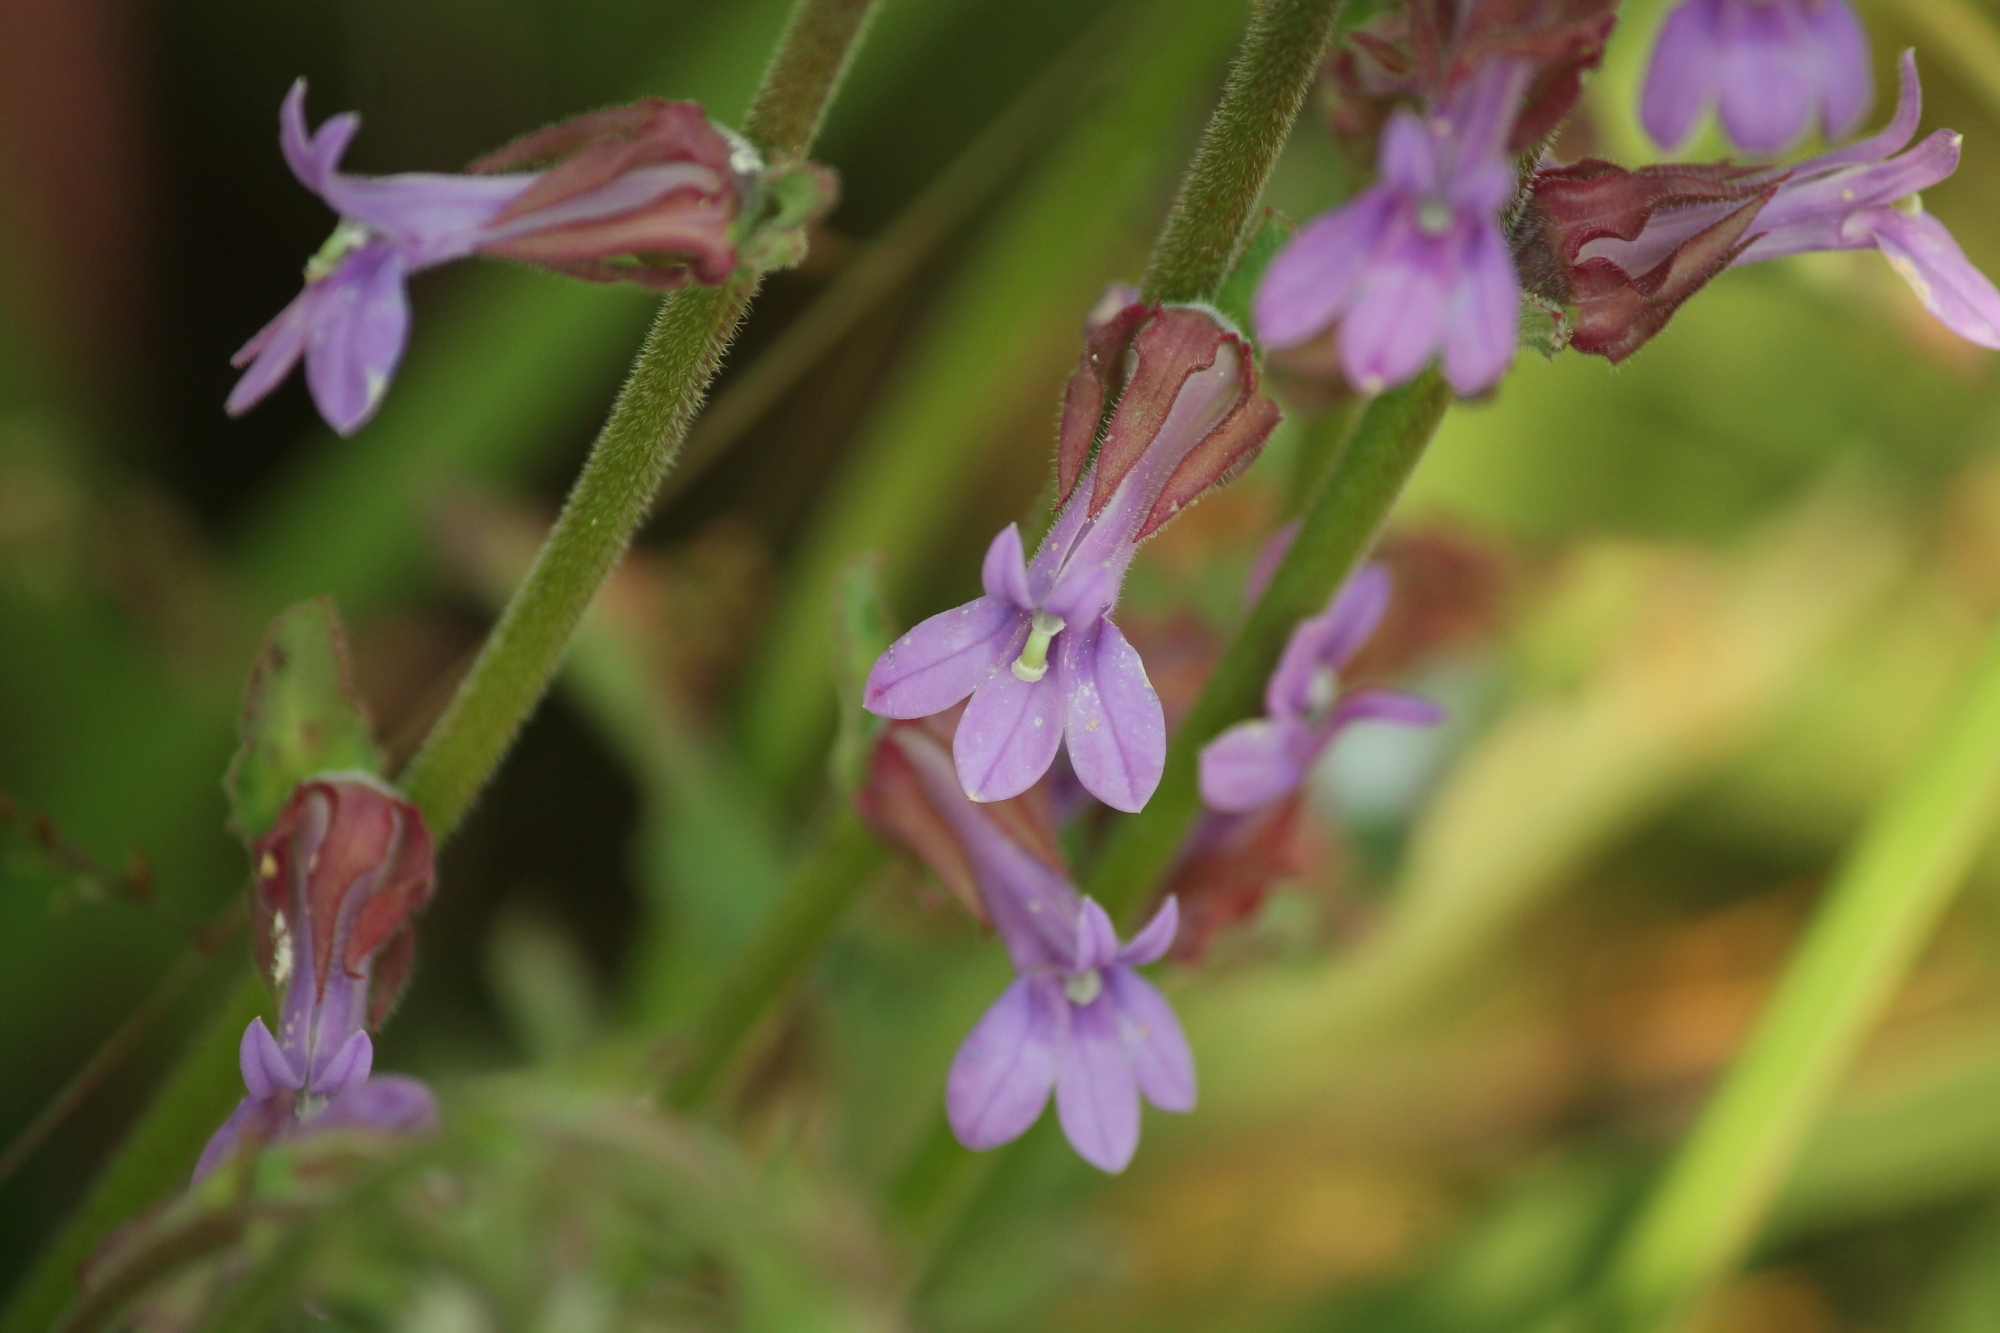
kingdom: Plantae
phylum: Tracheophyta
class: Magnoliopsida
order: Asterales
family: Campanulaceae
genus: Lobelia
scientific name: Lobelia puberula
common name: Purple dewdrop
